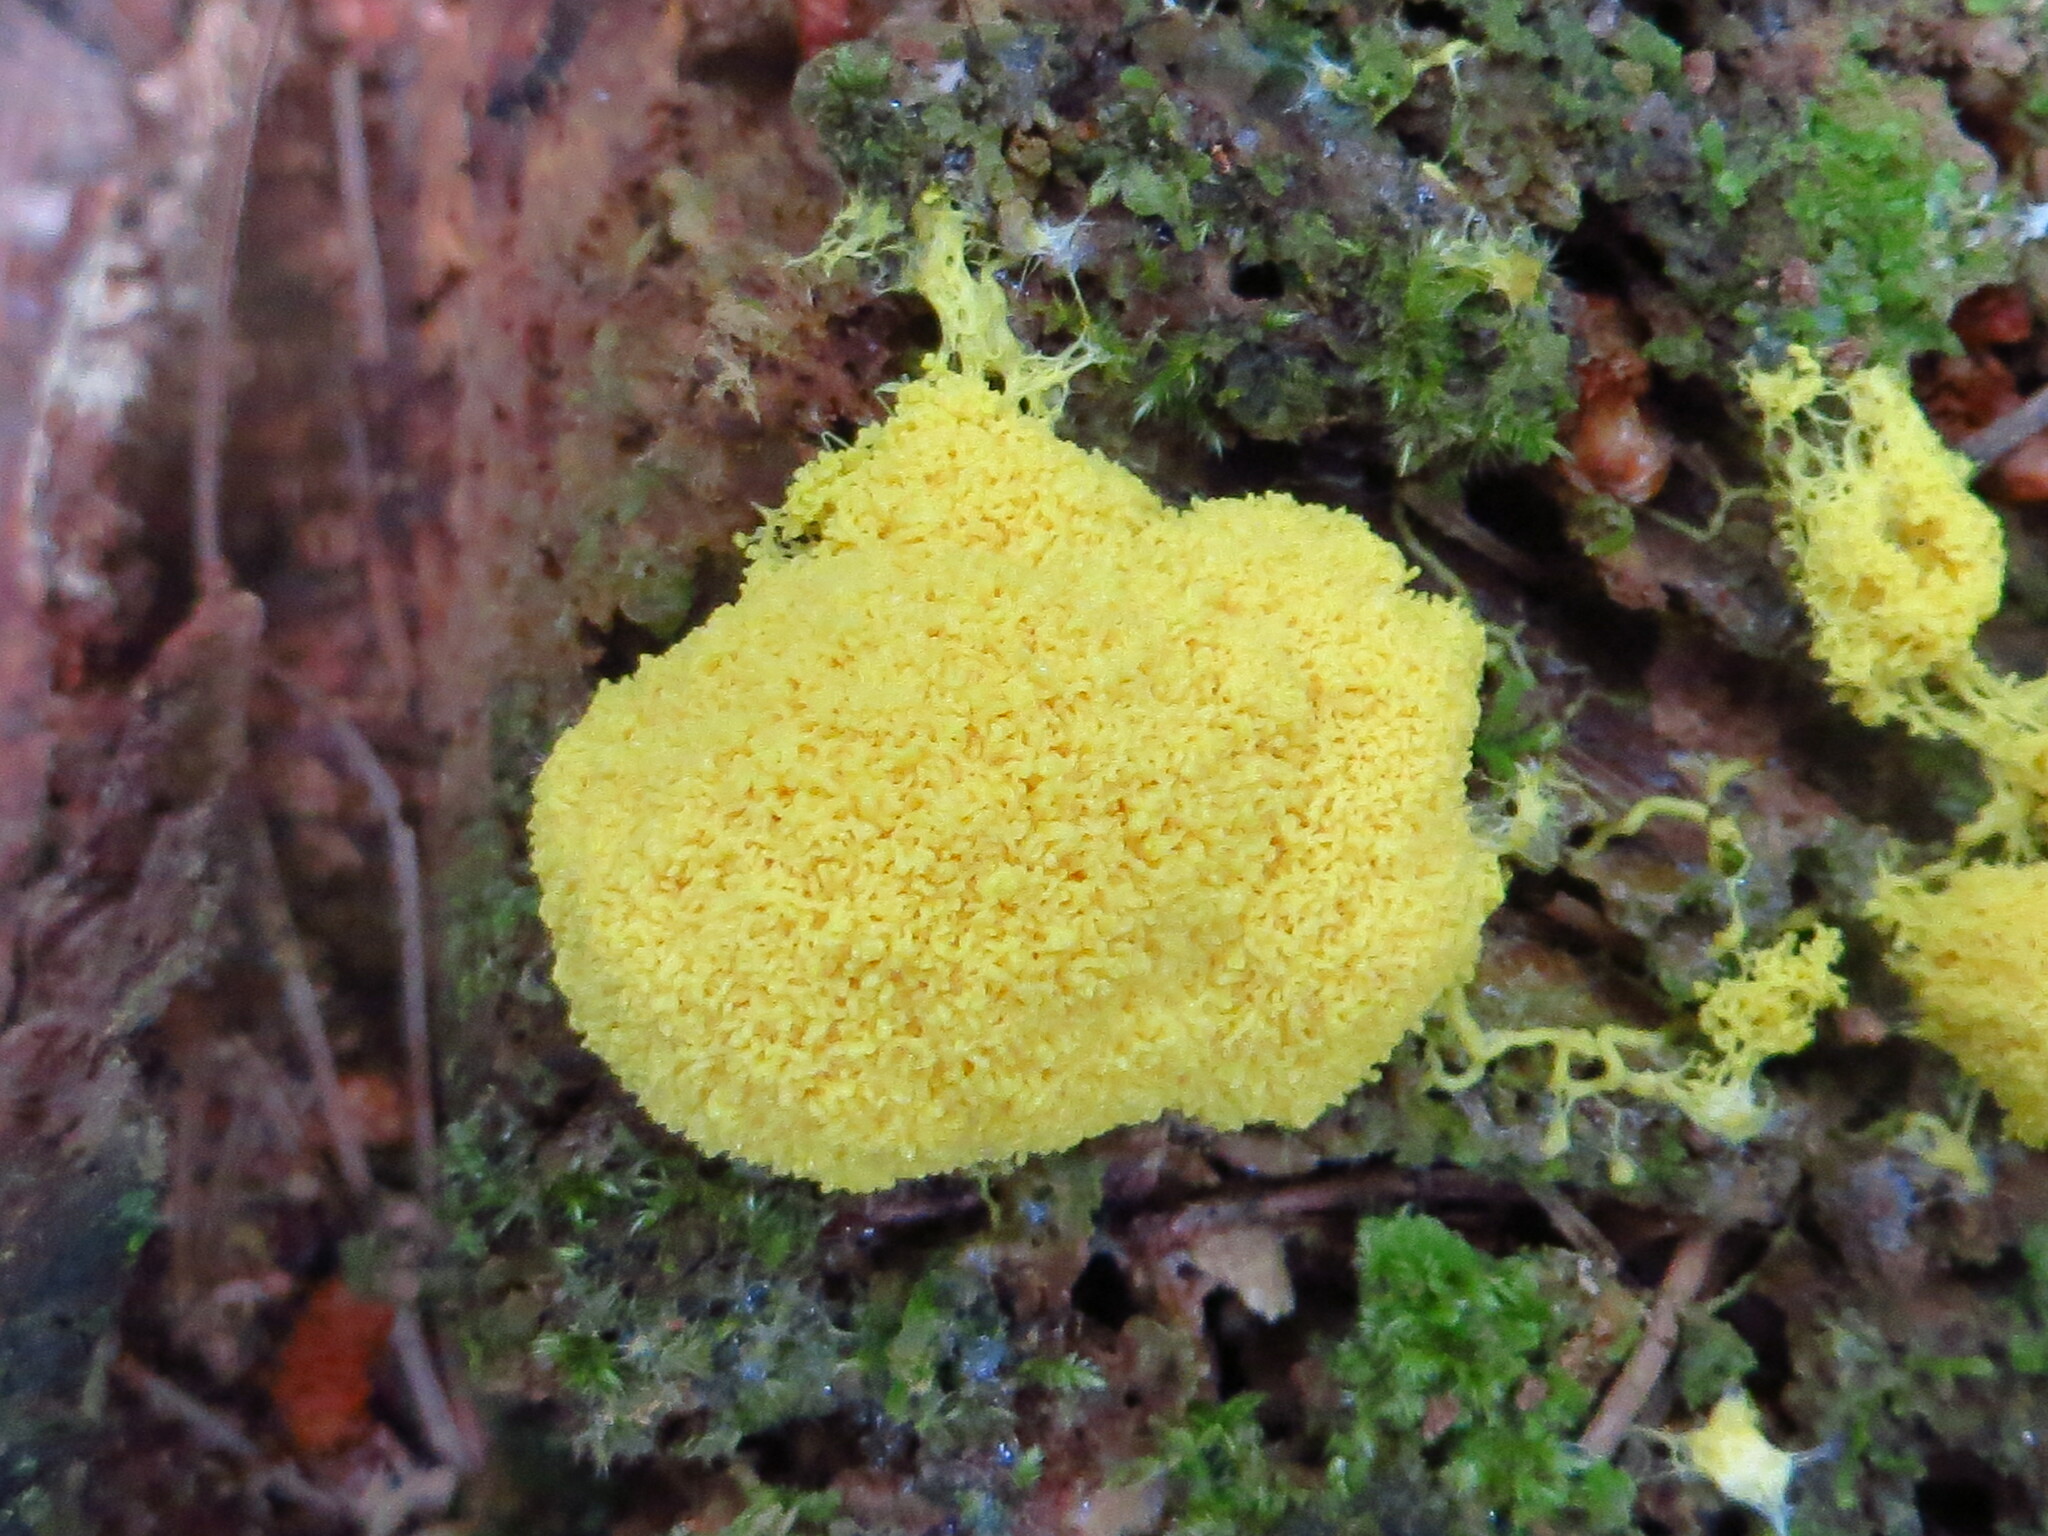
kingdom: Protozoa
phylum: Mycetozoa
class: Myxomycetes
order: Physarales
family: Physaraceae
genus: Fuligo
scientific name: Fuligo septica
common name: Dog vomit slime mold
